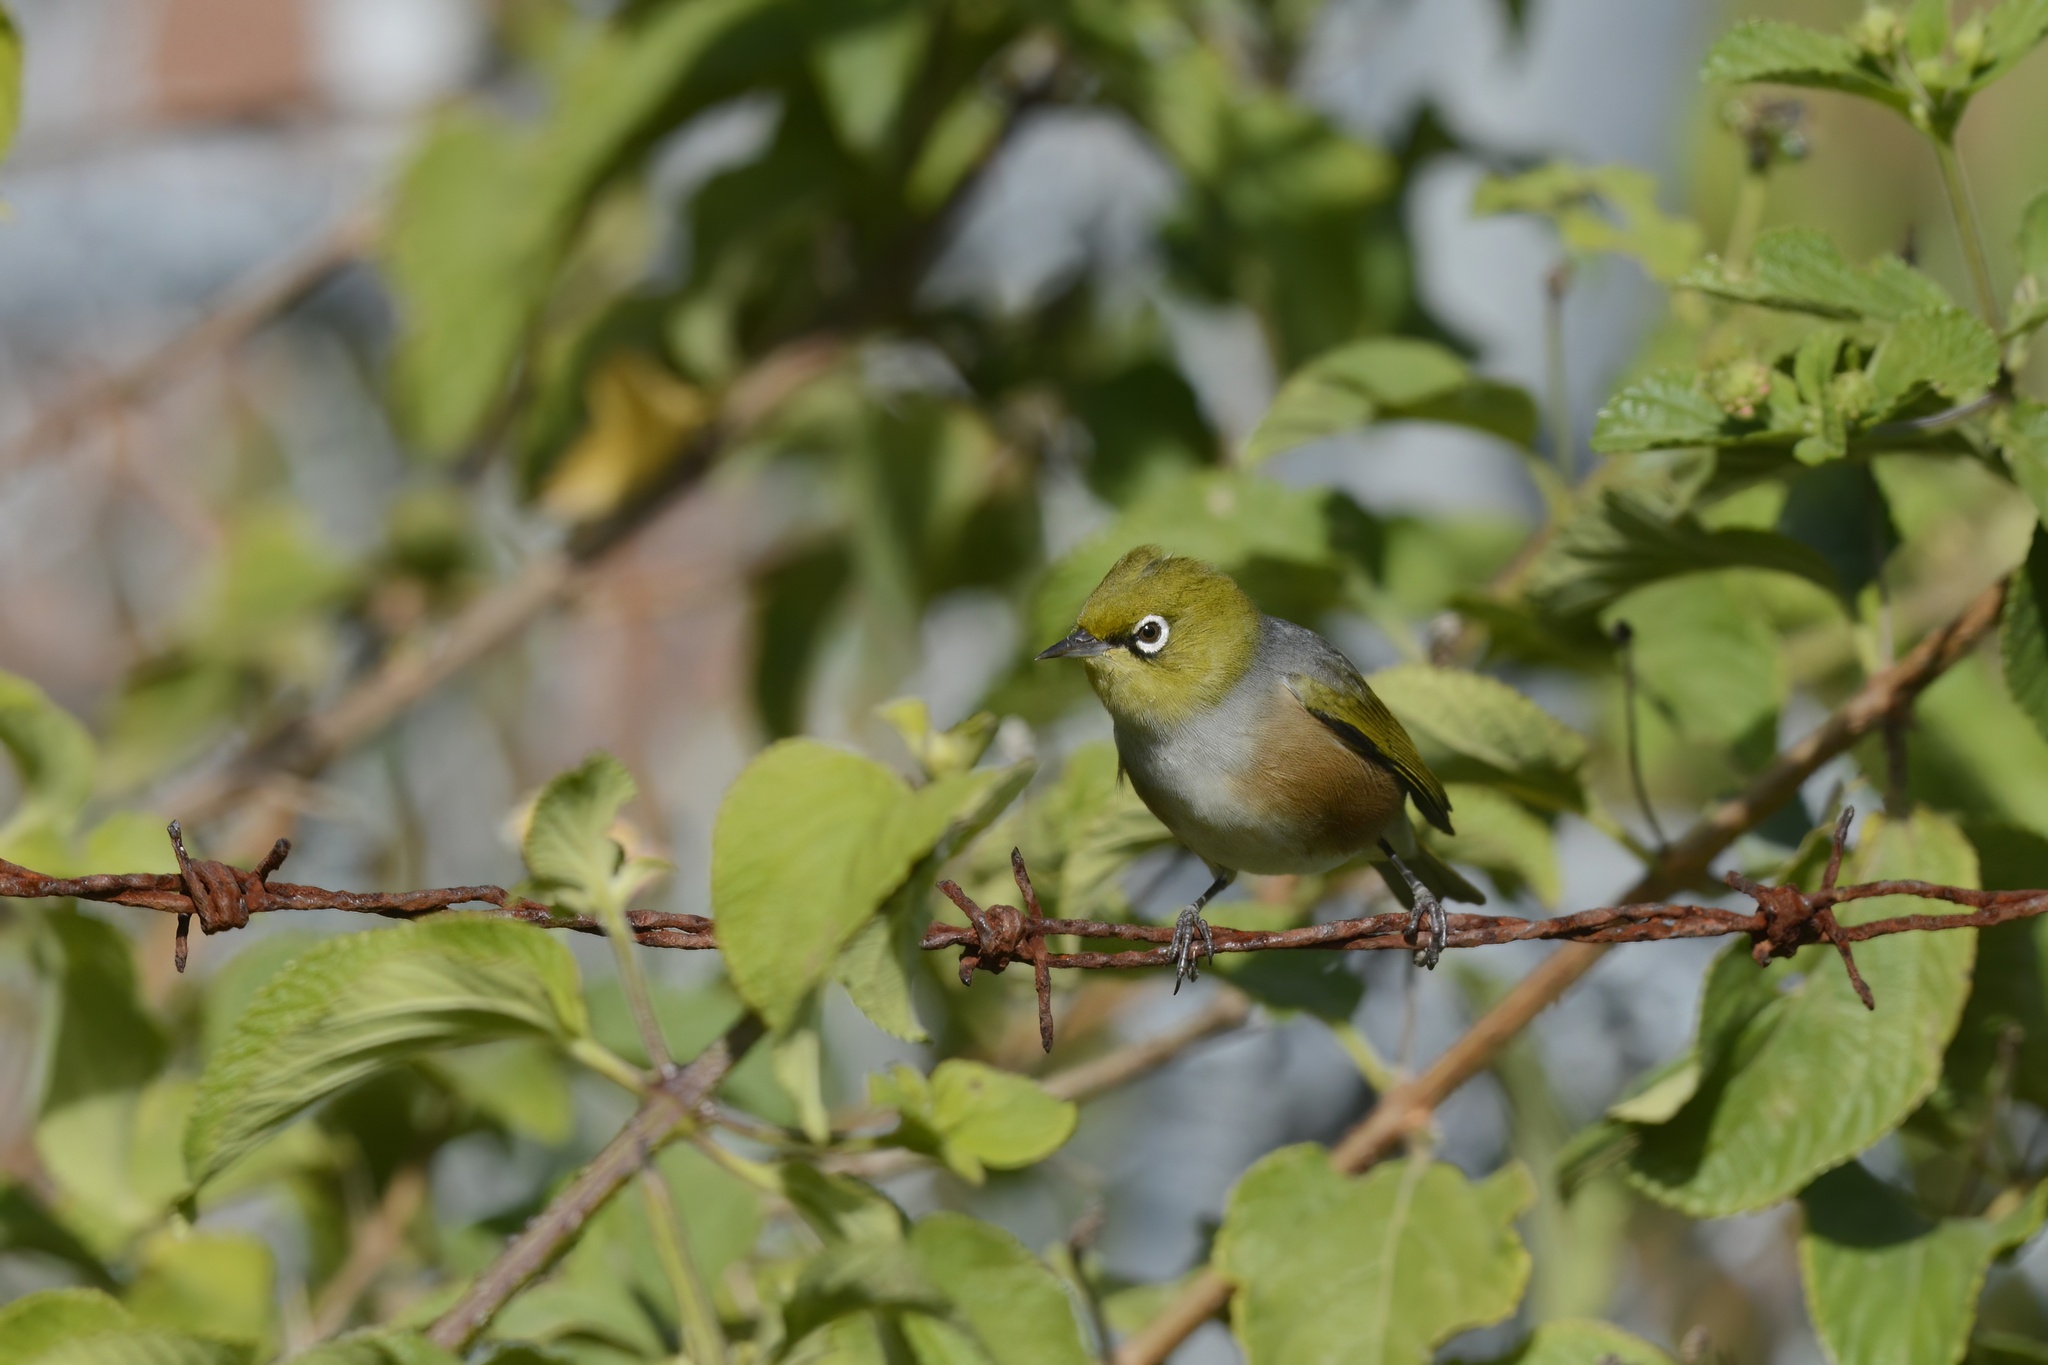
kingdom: Animalia
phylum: Chordata
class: Aves
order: Passeriformes
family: Zosteropidae
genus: Zosterops
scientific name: Zosterops lateralis
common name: Silvereye
